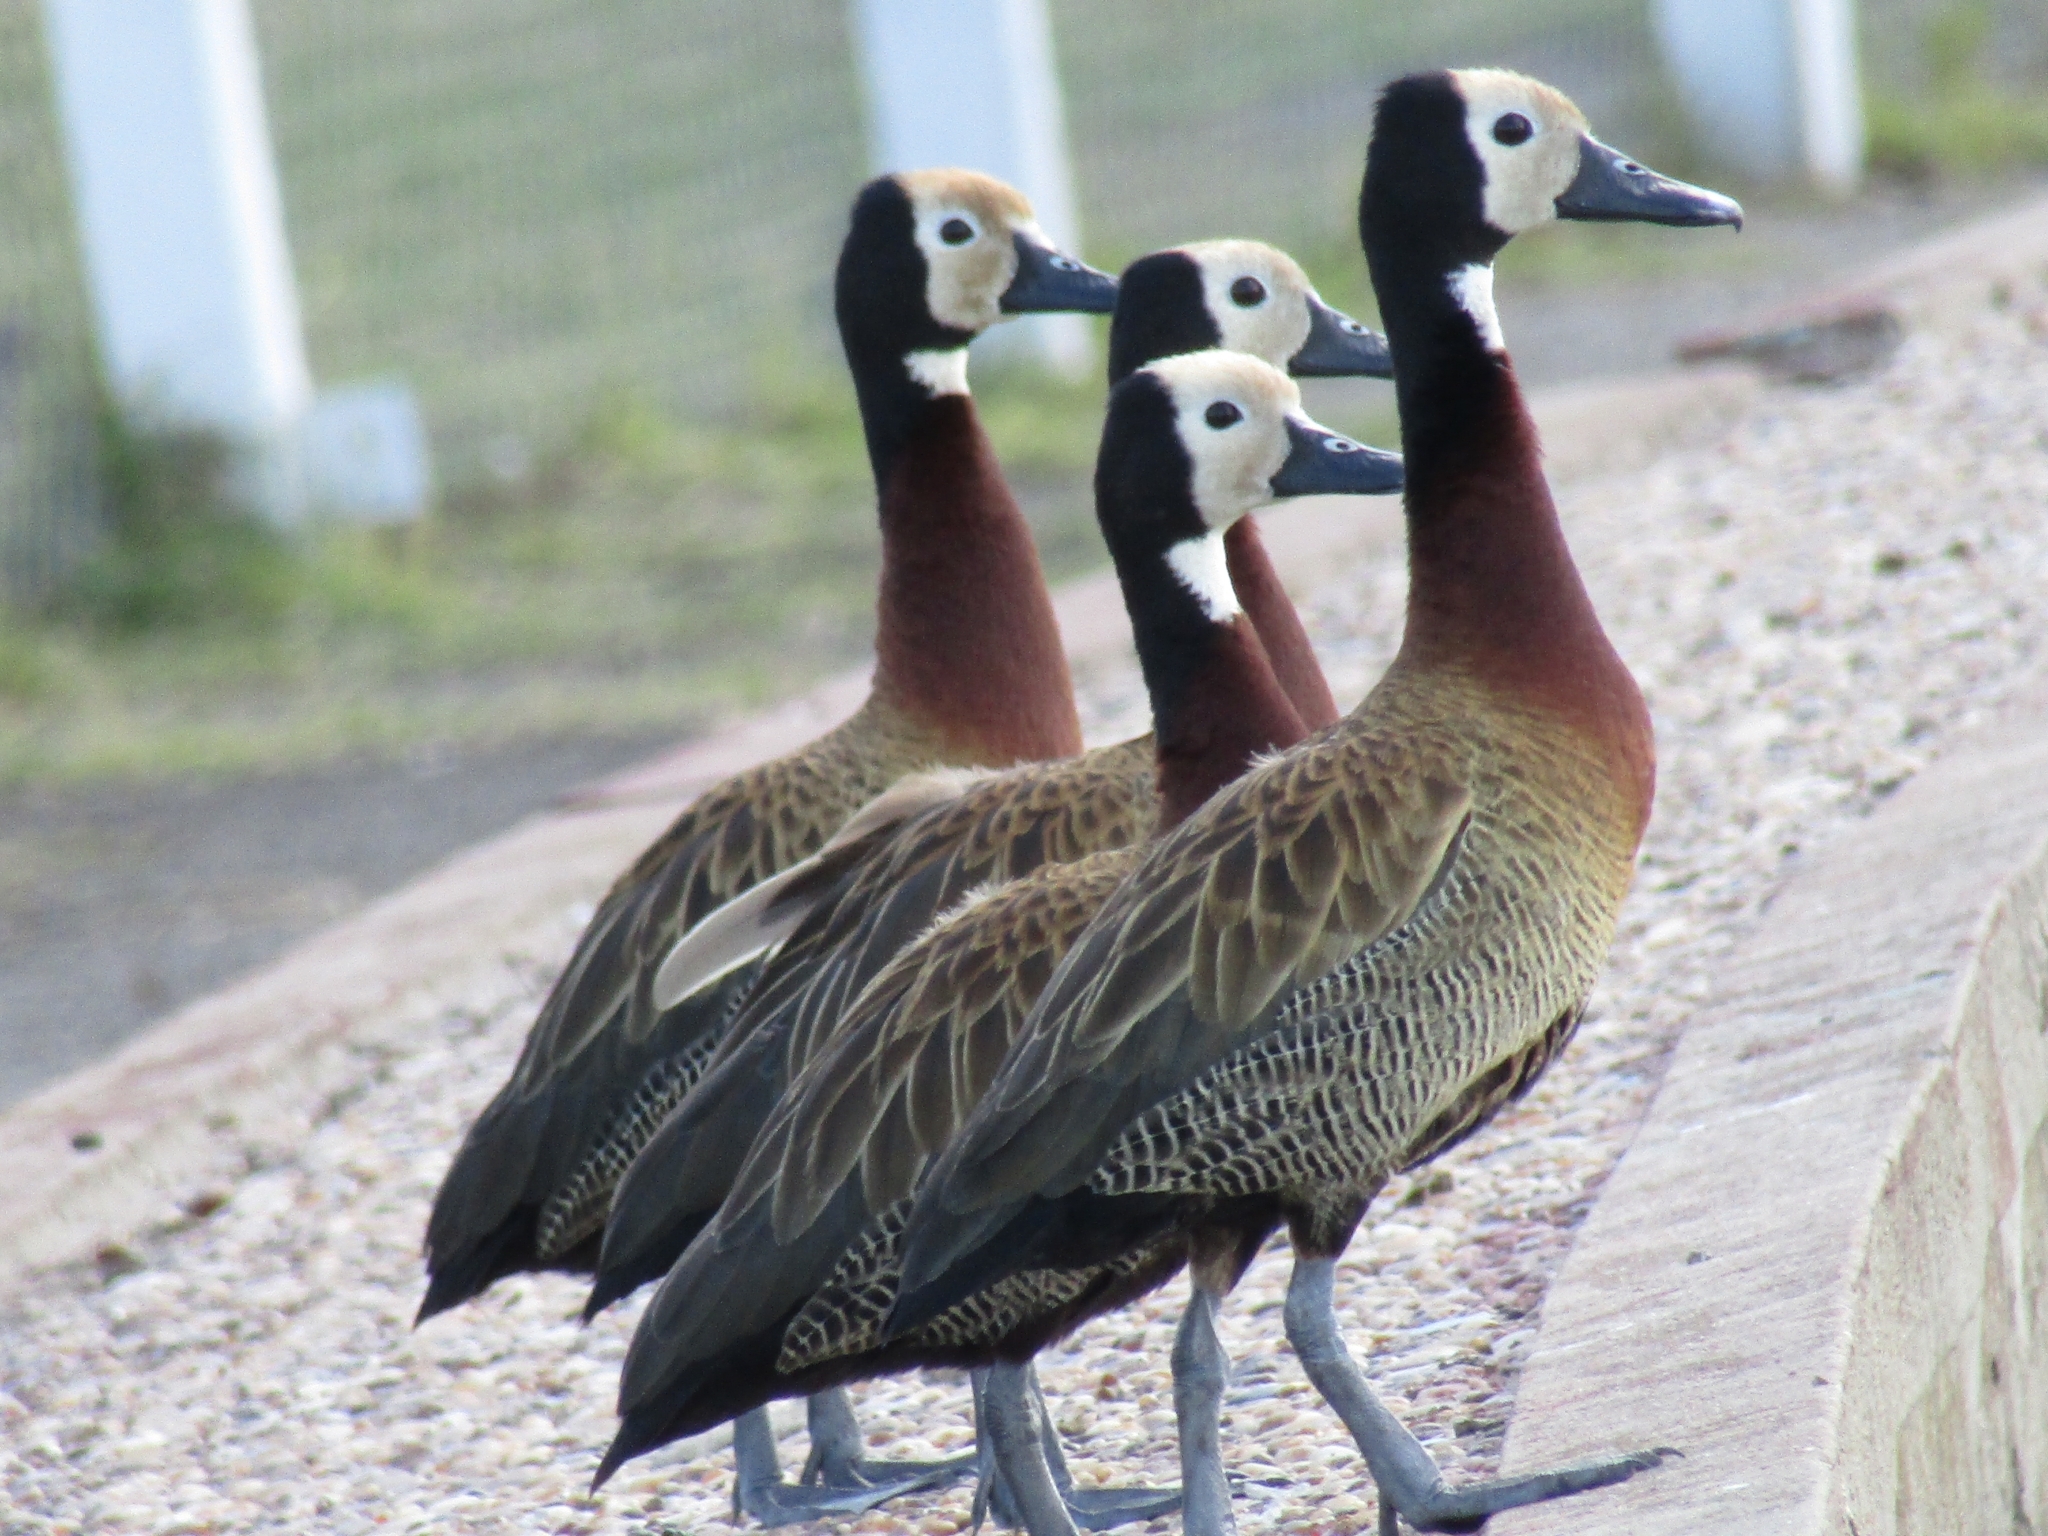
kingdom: Animalia
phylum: Chordata
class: Aves
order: Anseriformes
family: Anatidae
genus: Dendrocygna
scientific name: Dendrocygna viduata
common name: White-faced whistling duck
